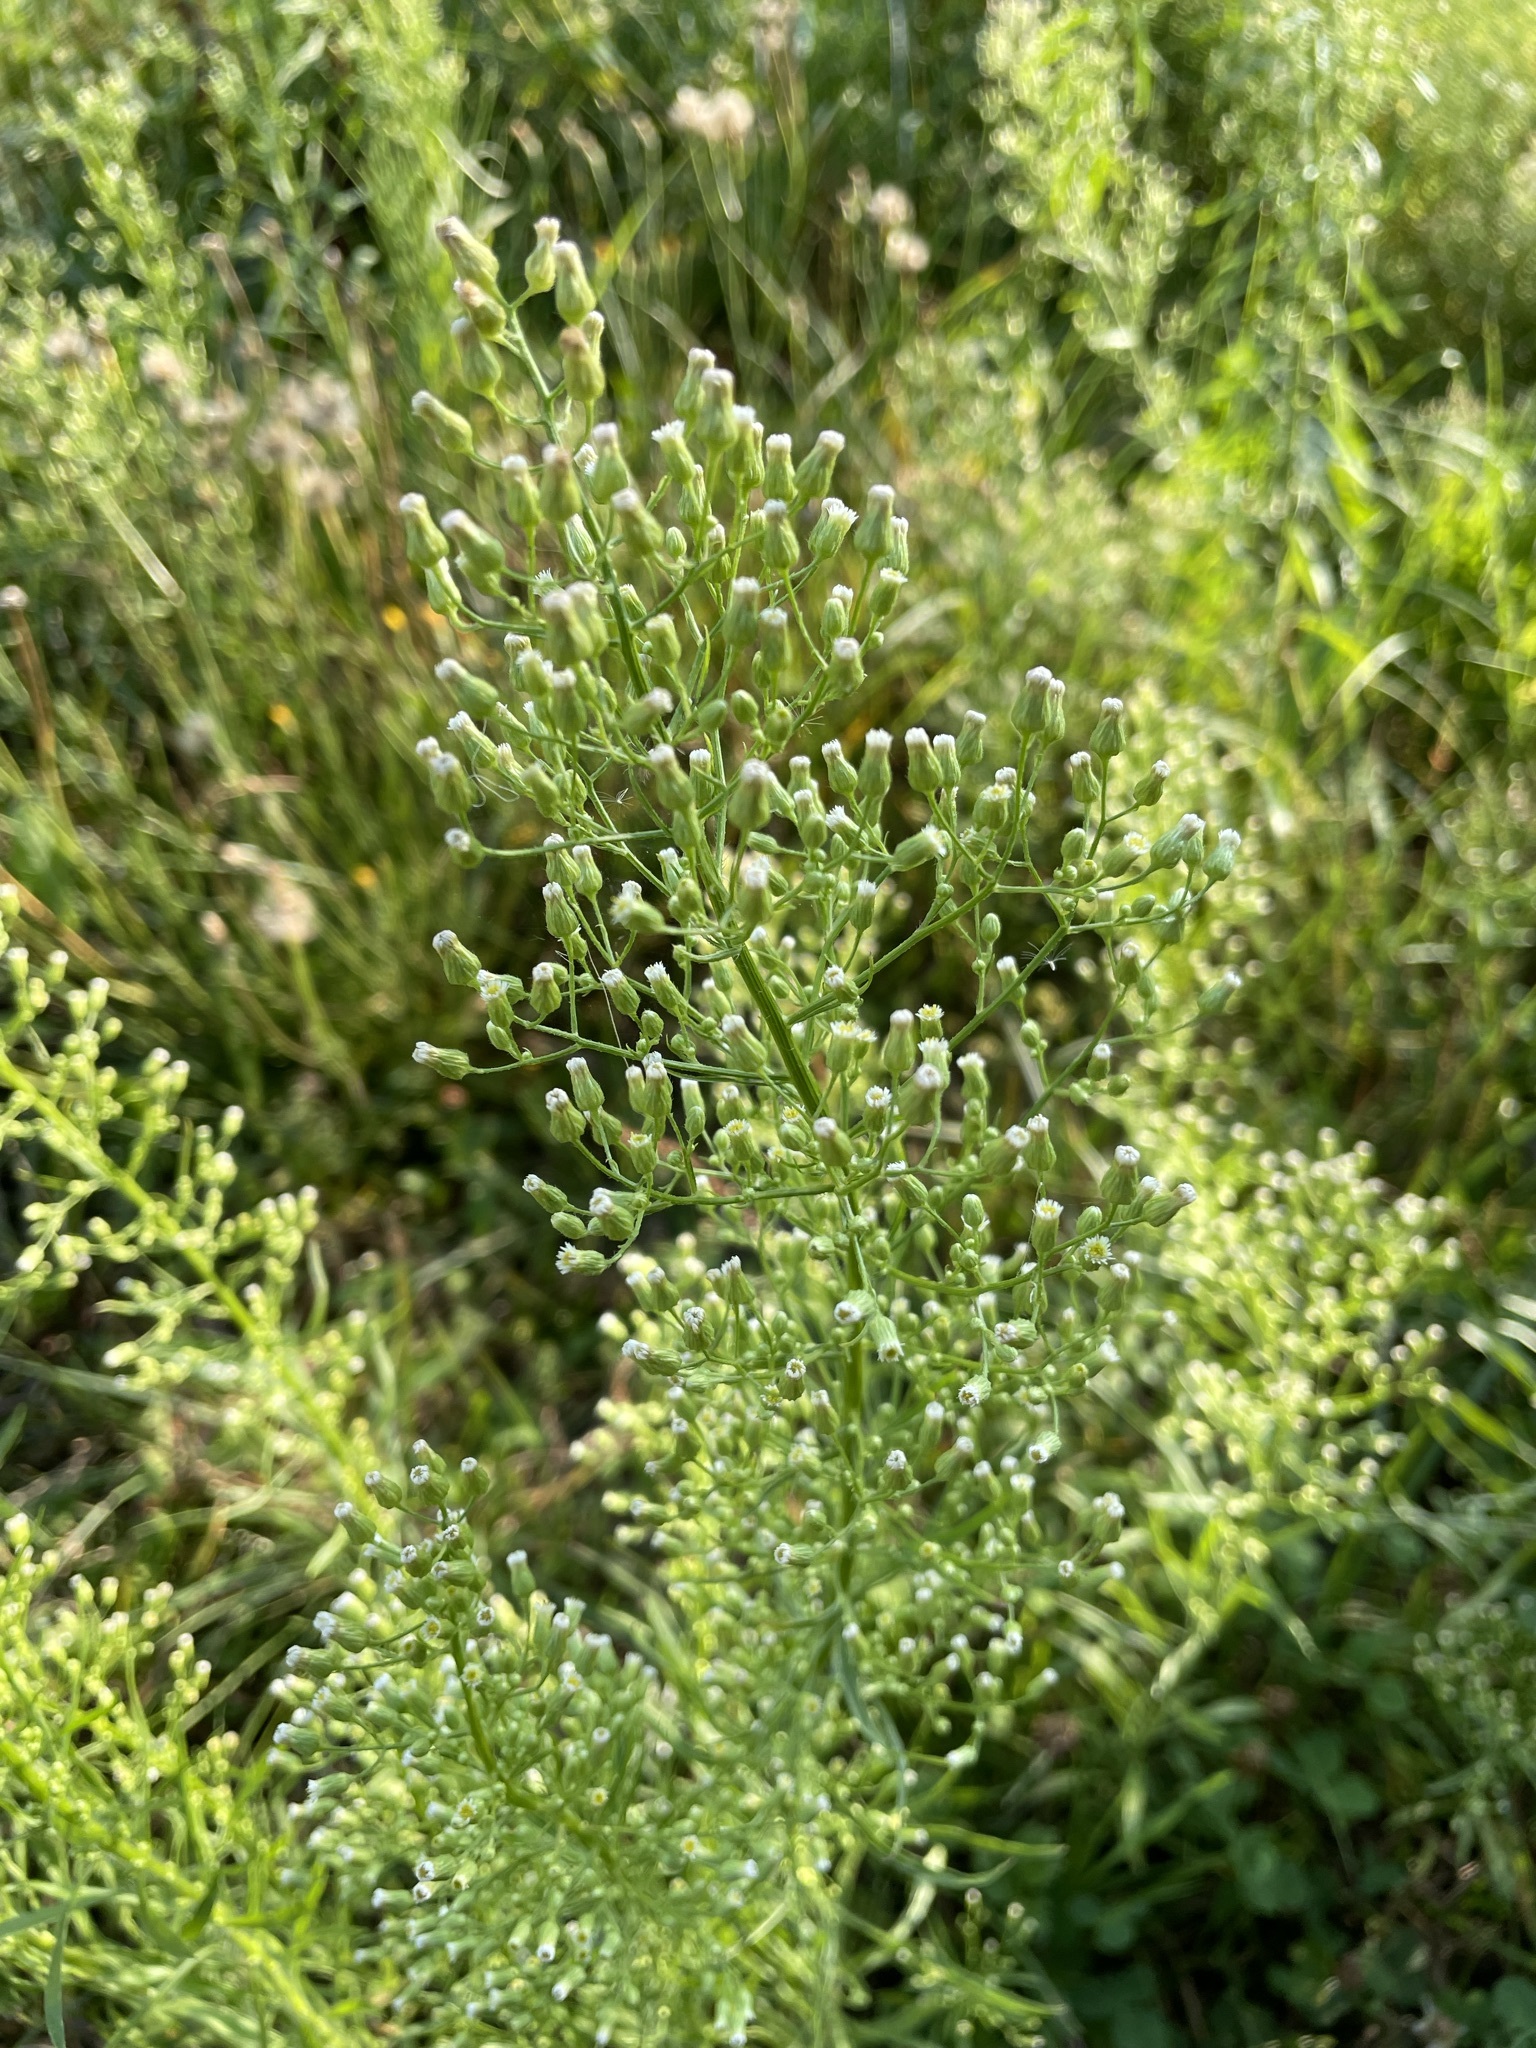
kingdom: Plantae
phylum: Tracheophyta
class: Magnoliopsida
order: Asterales
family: Asteraceae
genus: Erigeron
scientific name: Erigeron canadensis
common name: Canadian fleabane
